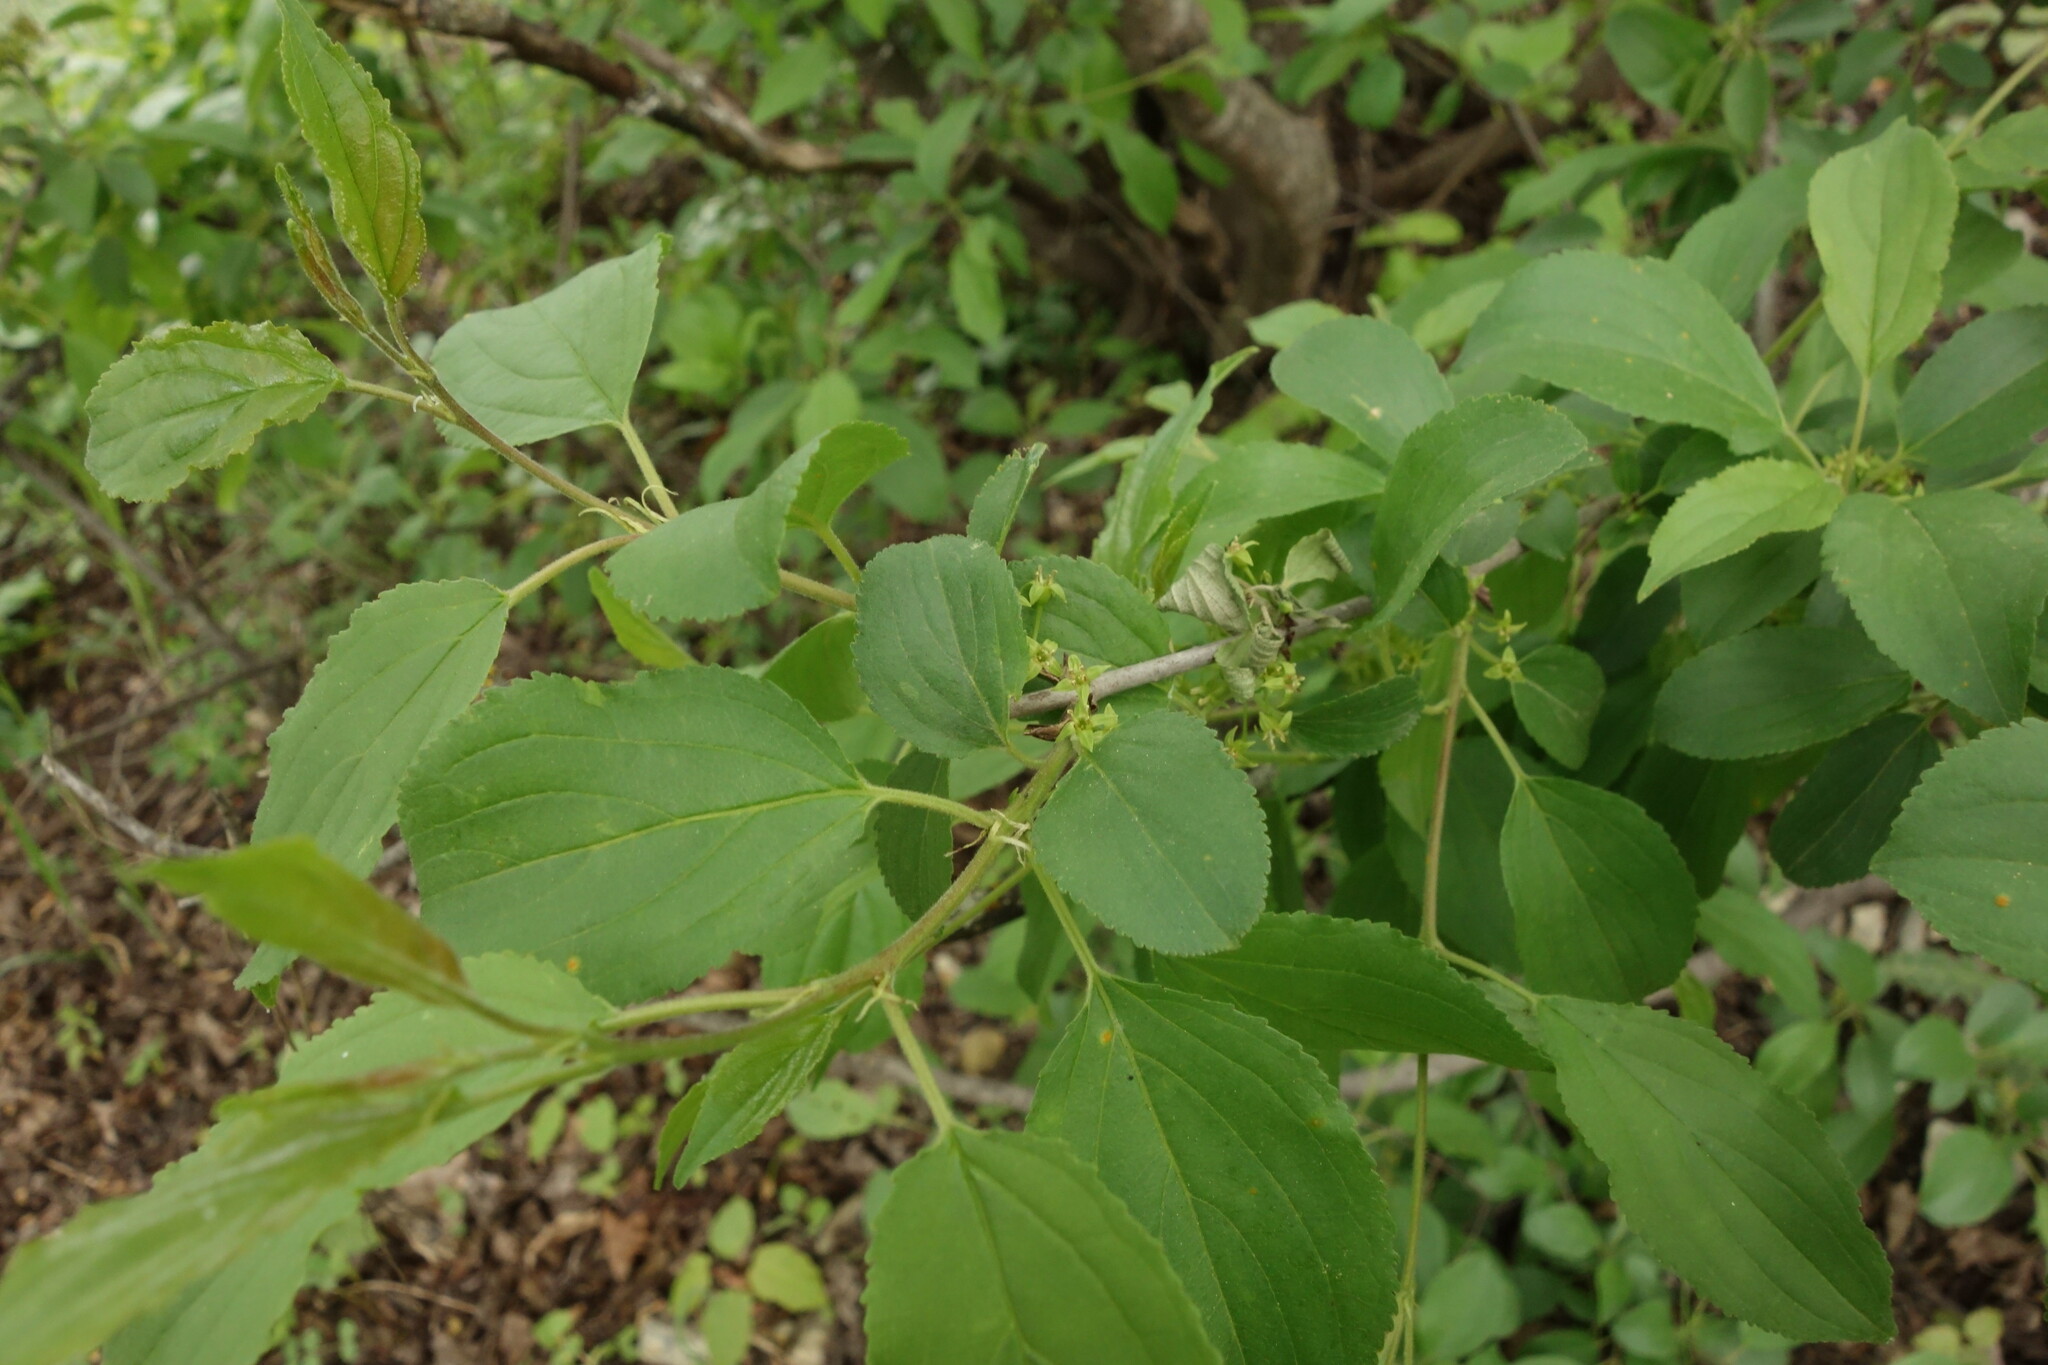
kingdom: Plantae
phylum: Tracheophyta
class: Magnoliopsida
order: Rosales
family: Rhamnaceae
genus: Rhamnus
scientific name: Rhamnus cathartica
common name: Common buckthorn
